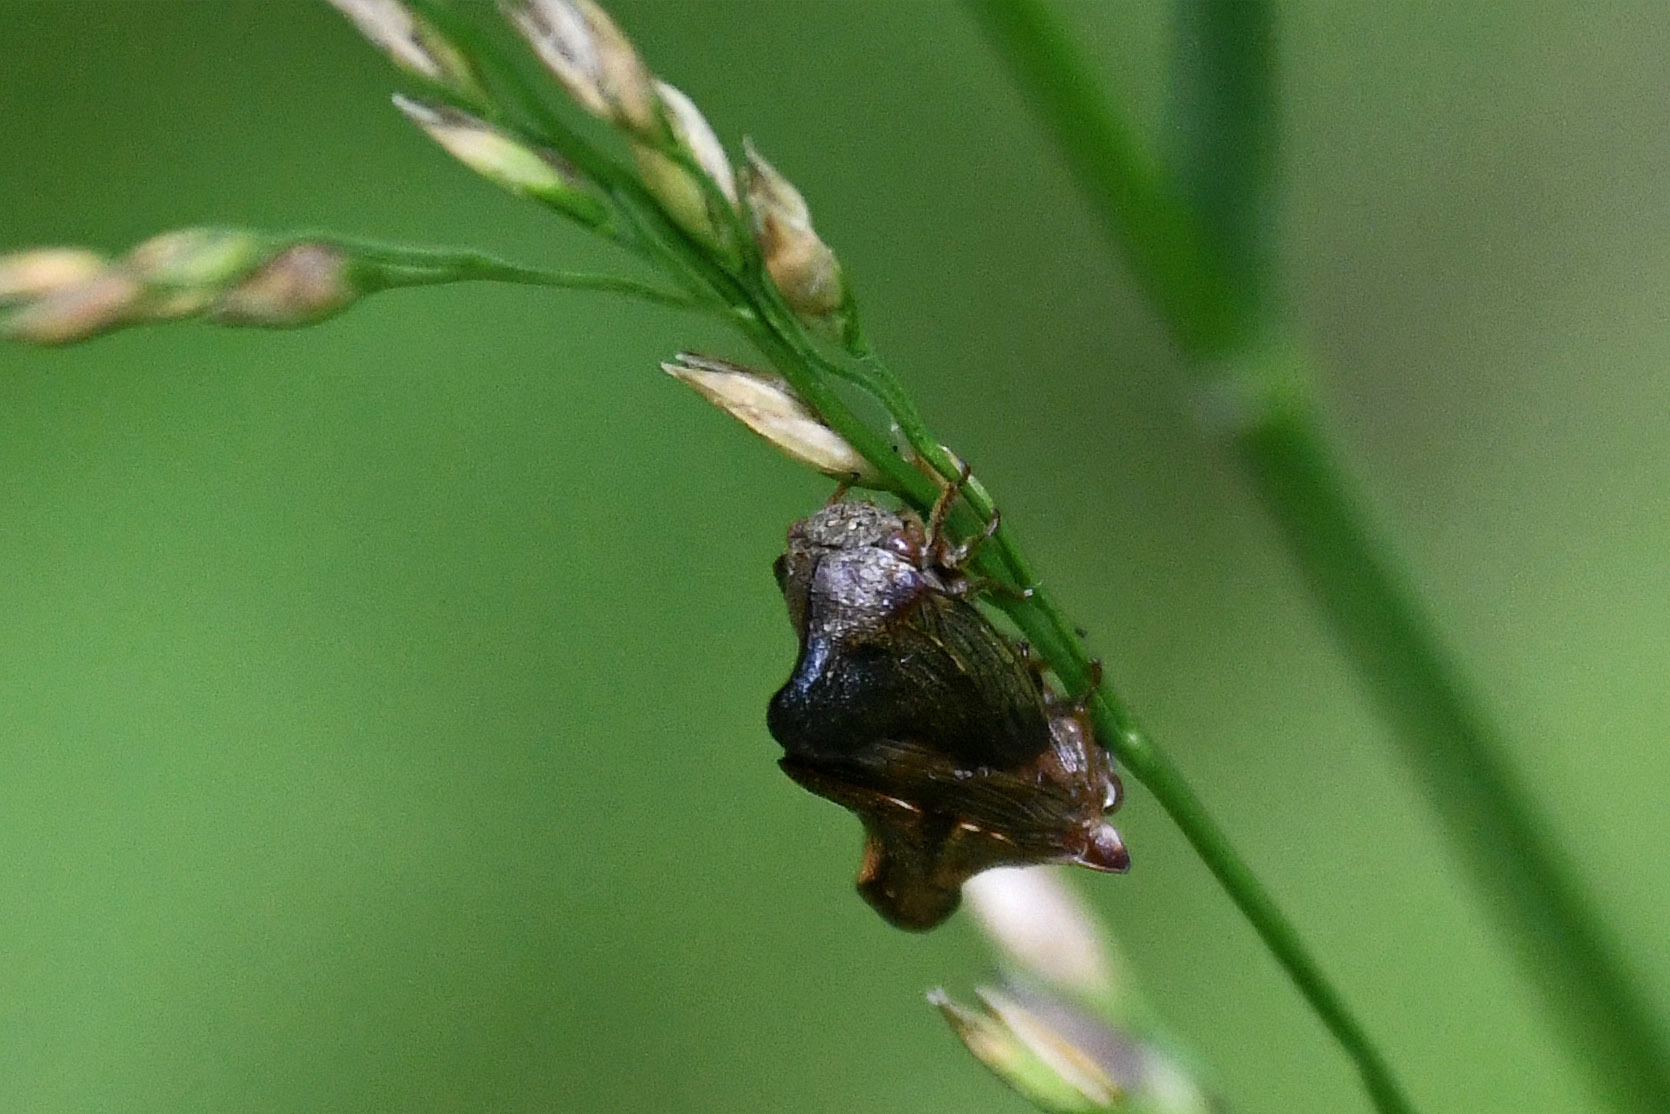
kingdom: Animalia
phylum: Arthropoda
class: Insecta
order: Hemiptera
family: Membracidae
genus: Telamona
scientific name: Telamona projecta
